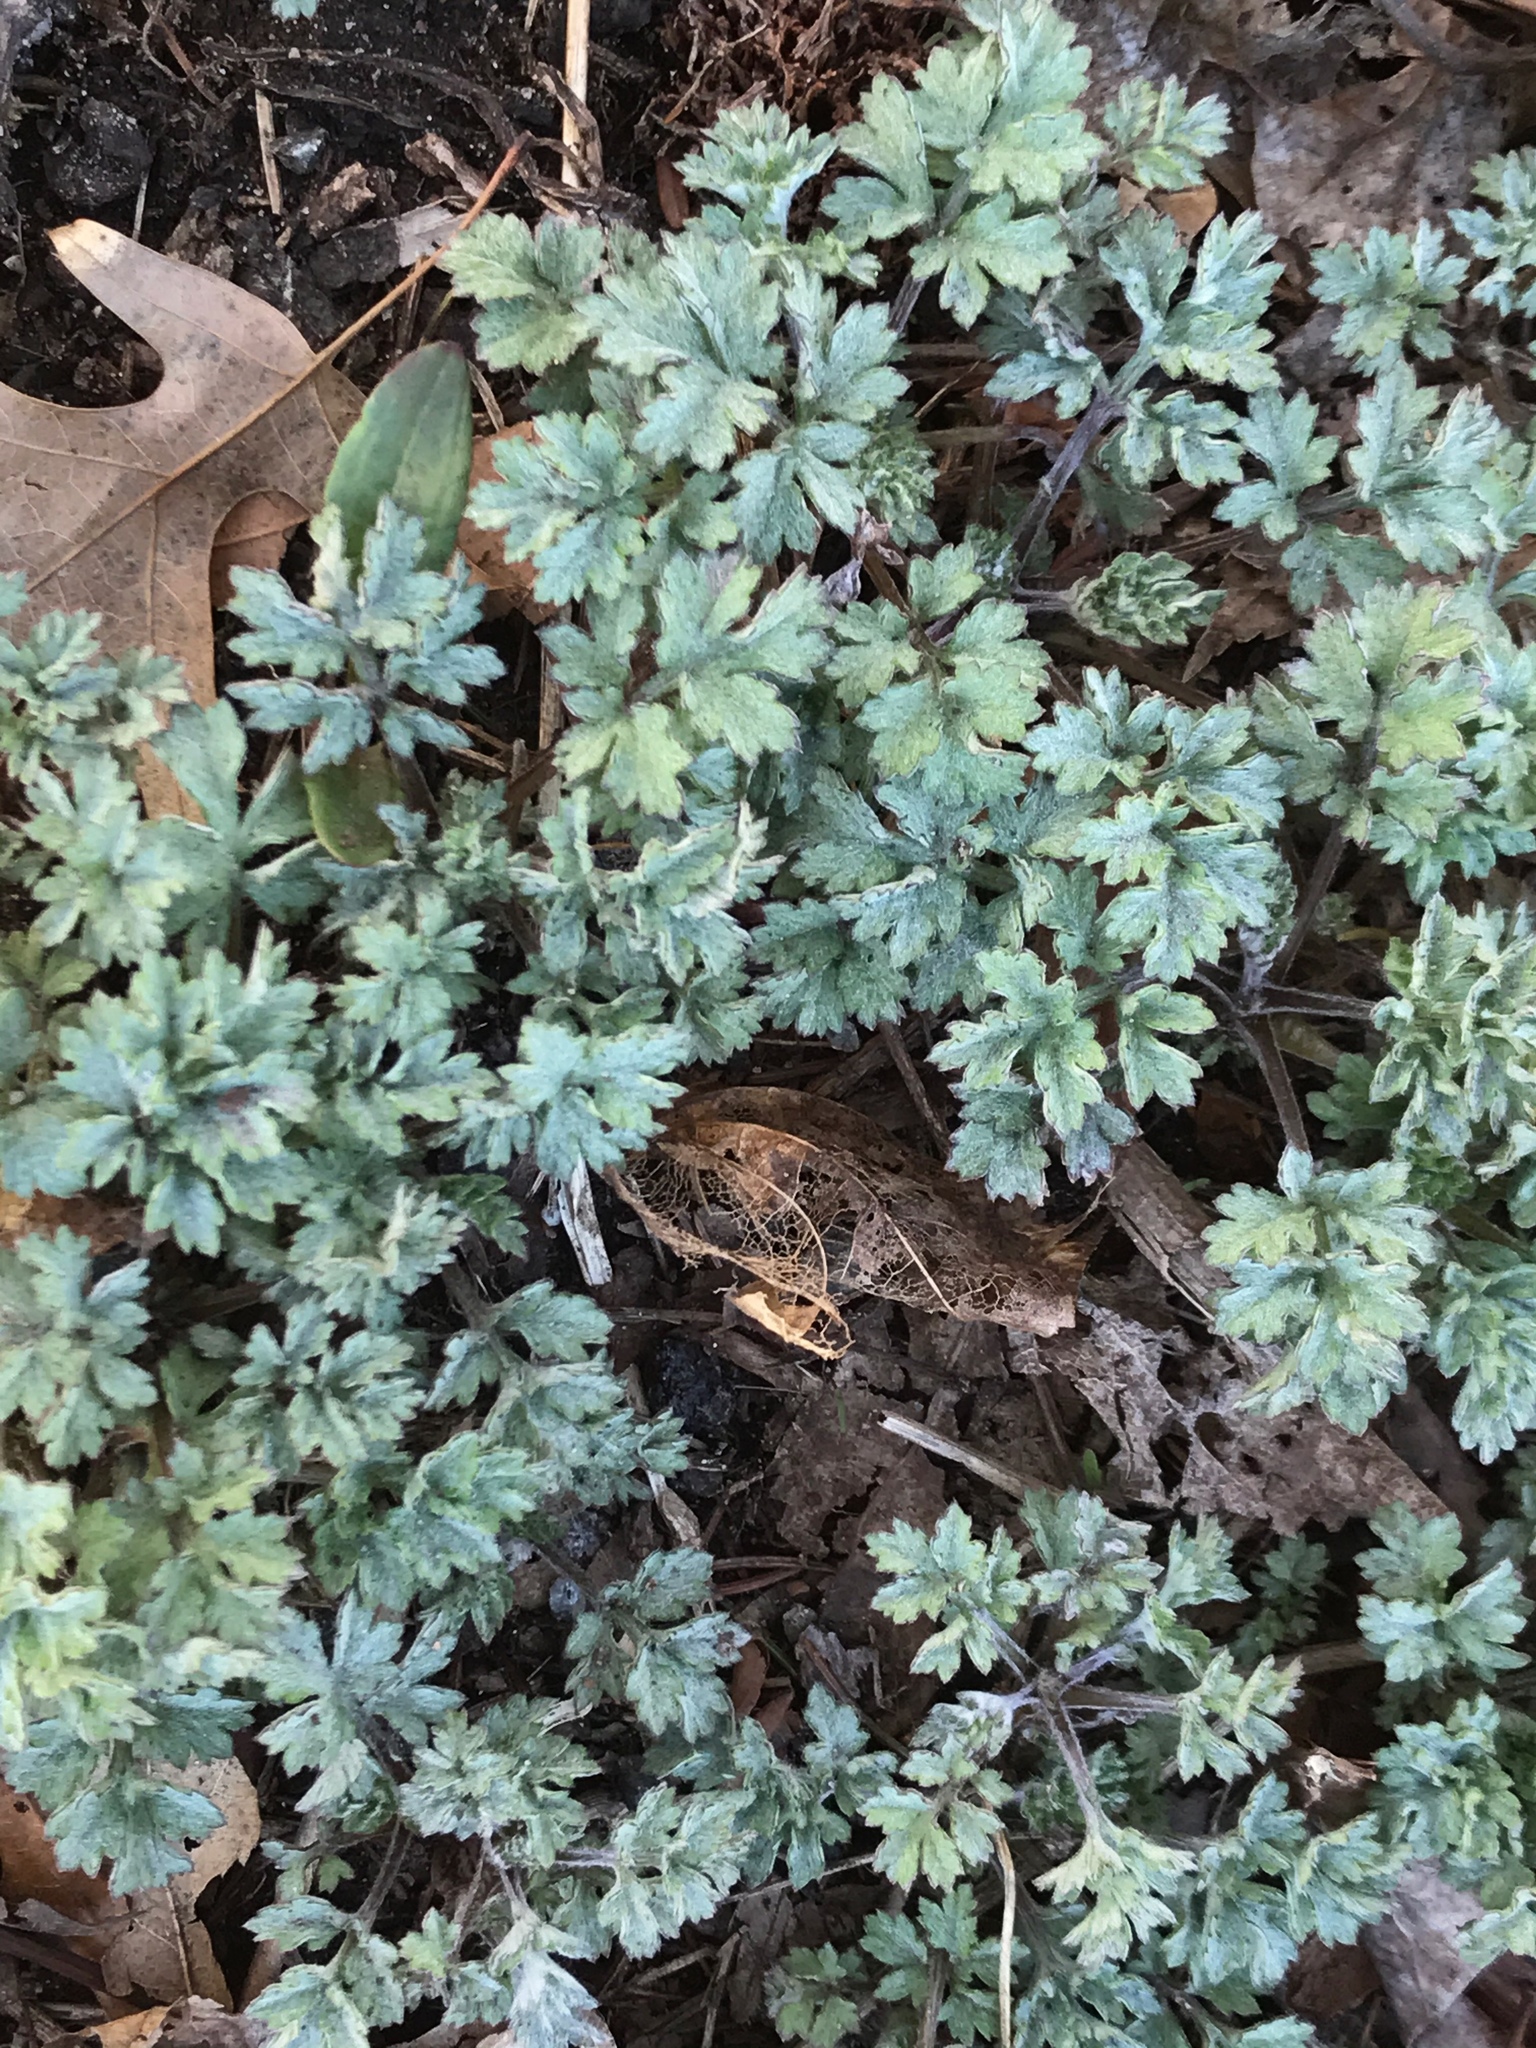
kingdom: Plantae
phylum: Tracheophyta
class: Magnoliopsida
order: Asterales
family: Asteraceae
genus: Artemisia
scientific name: Artemisia vulgaris
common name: Mugwort
